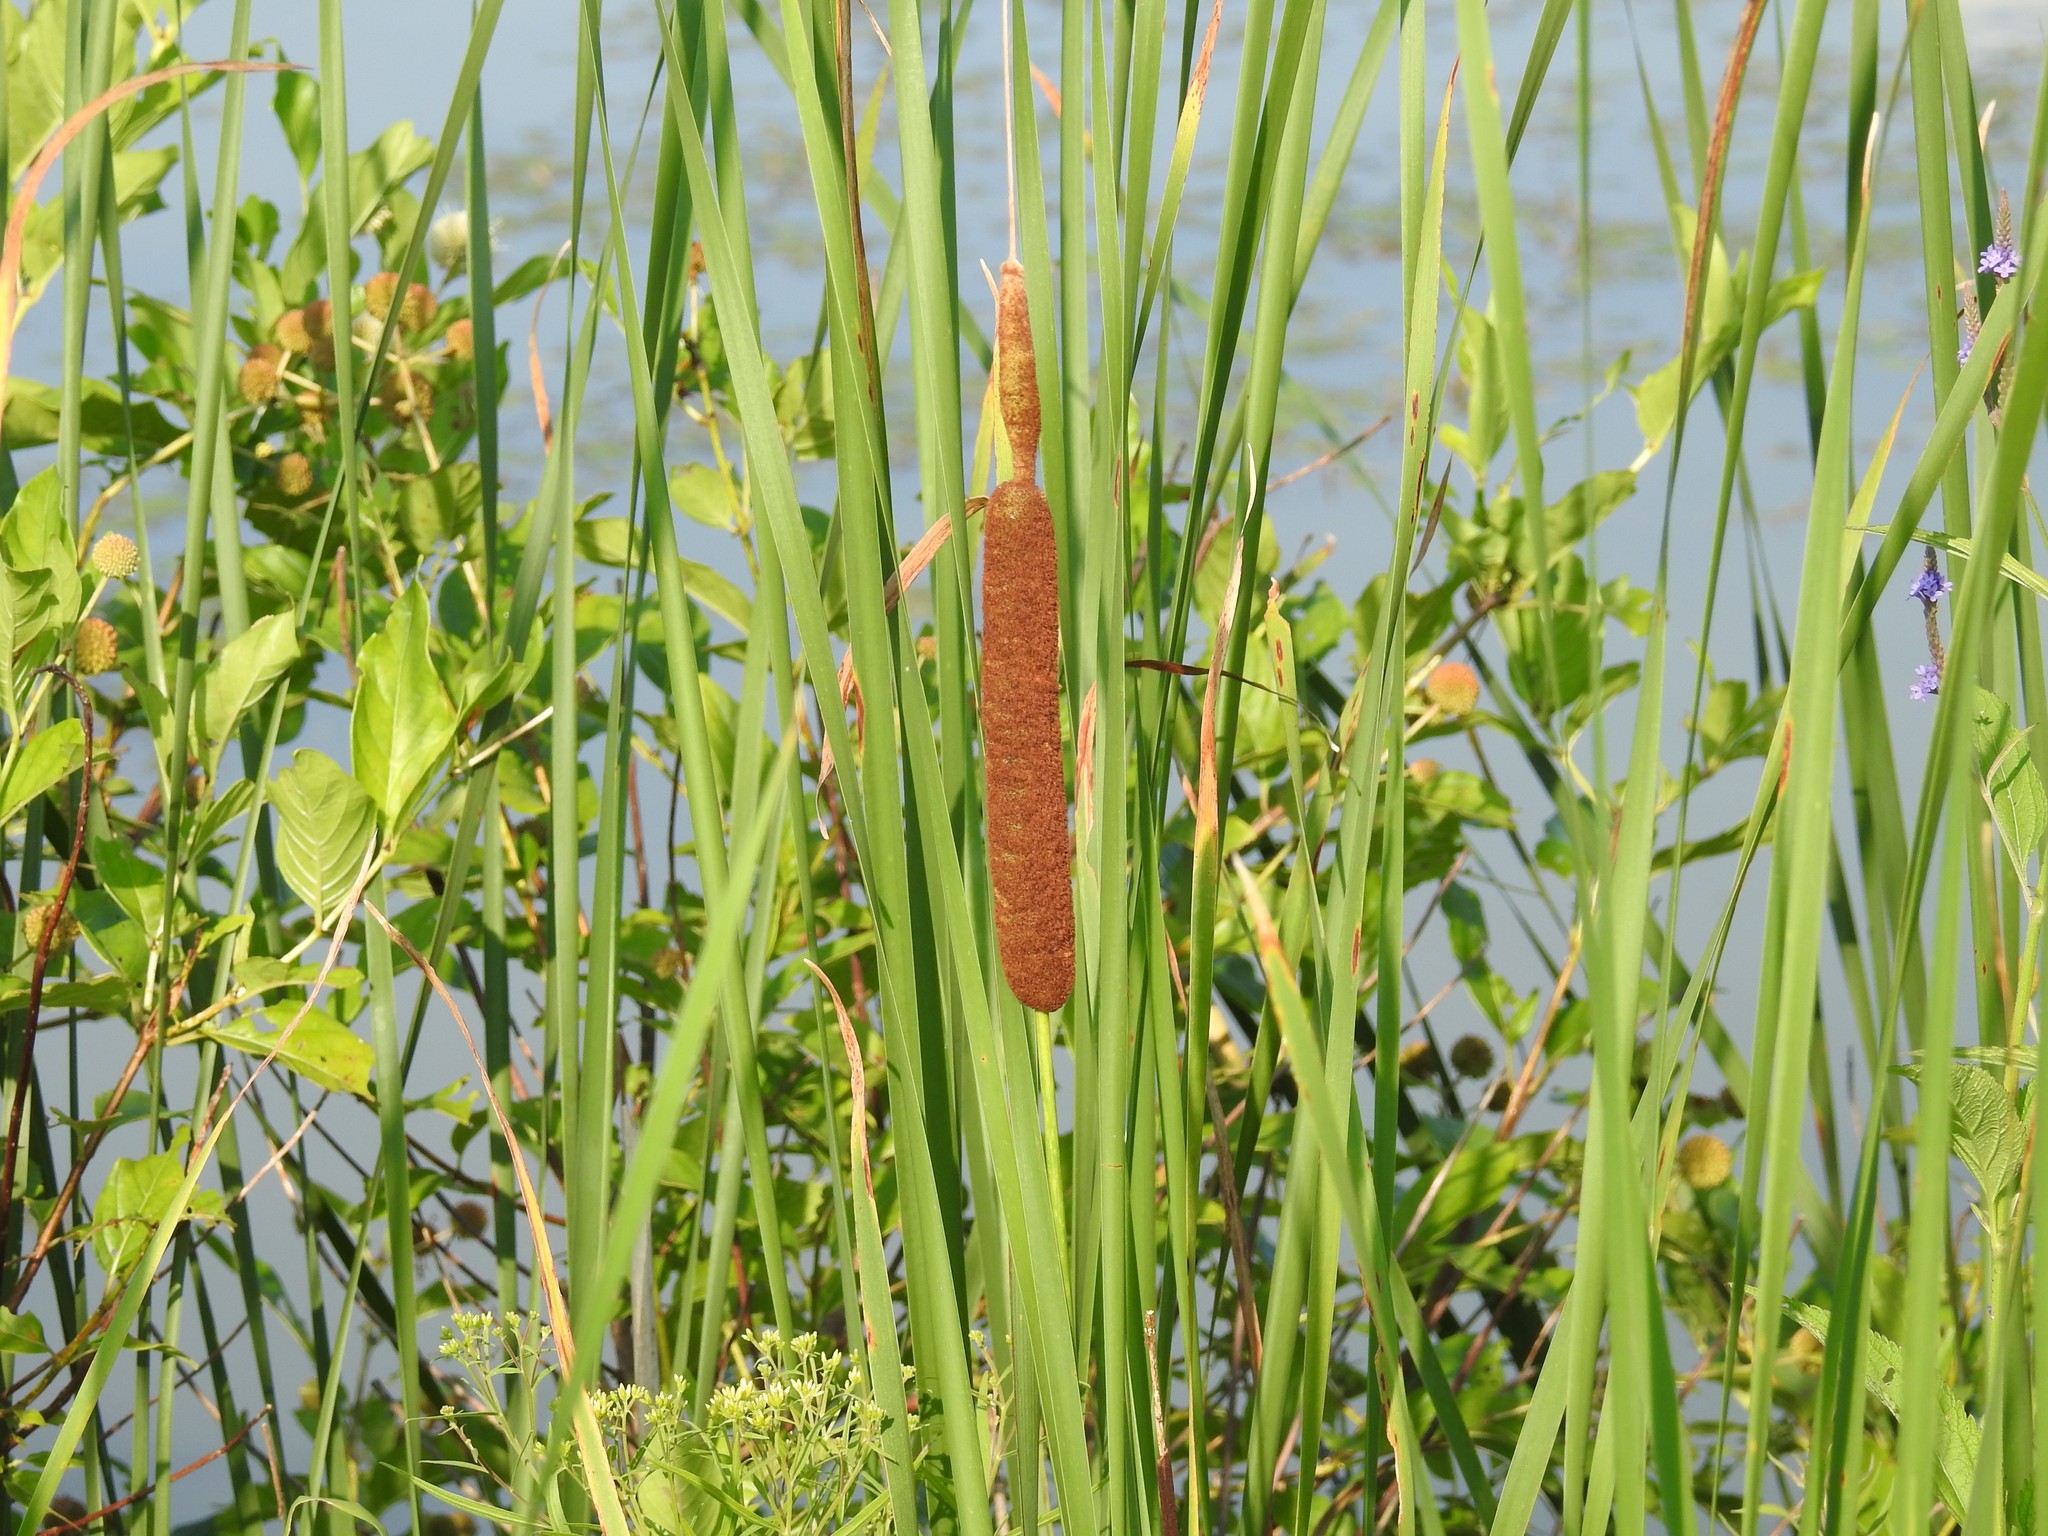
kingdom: Plantae
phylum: Tracheophyta
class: Liliopsida
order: Poales
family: Typhaceae
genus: Typha
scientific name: Typha glauca
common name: Blue cattail
